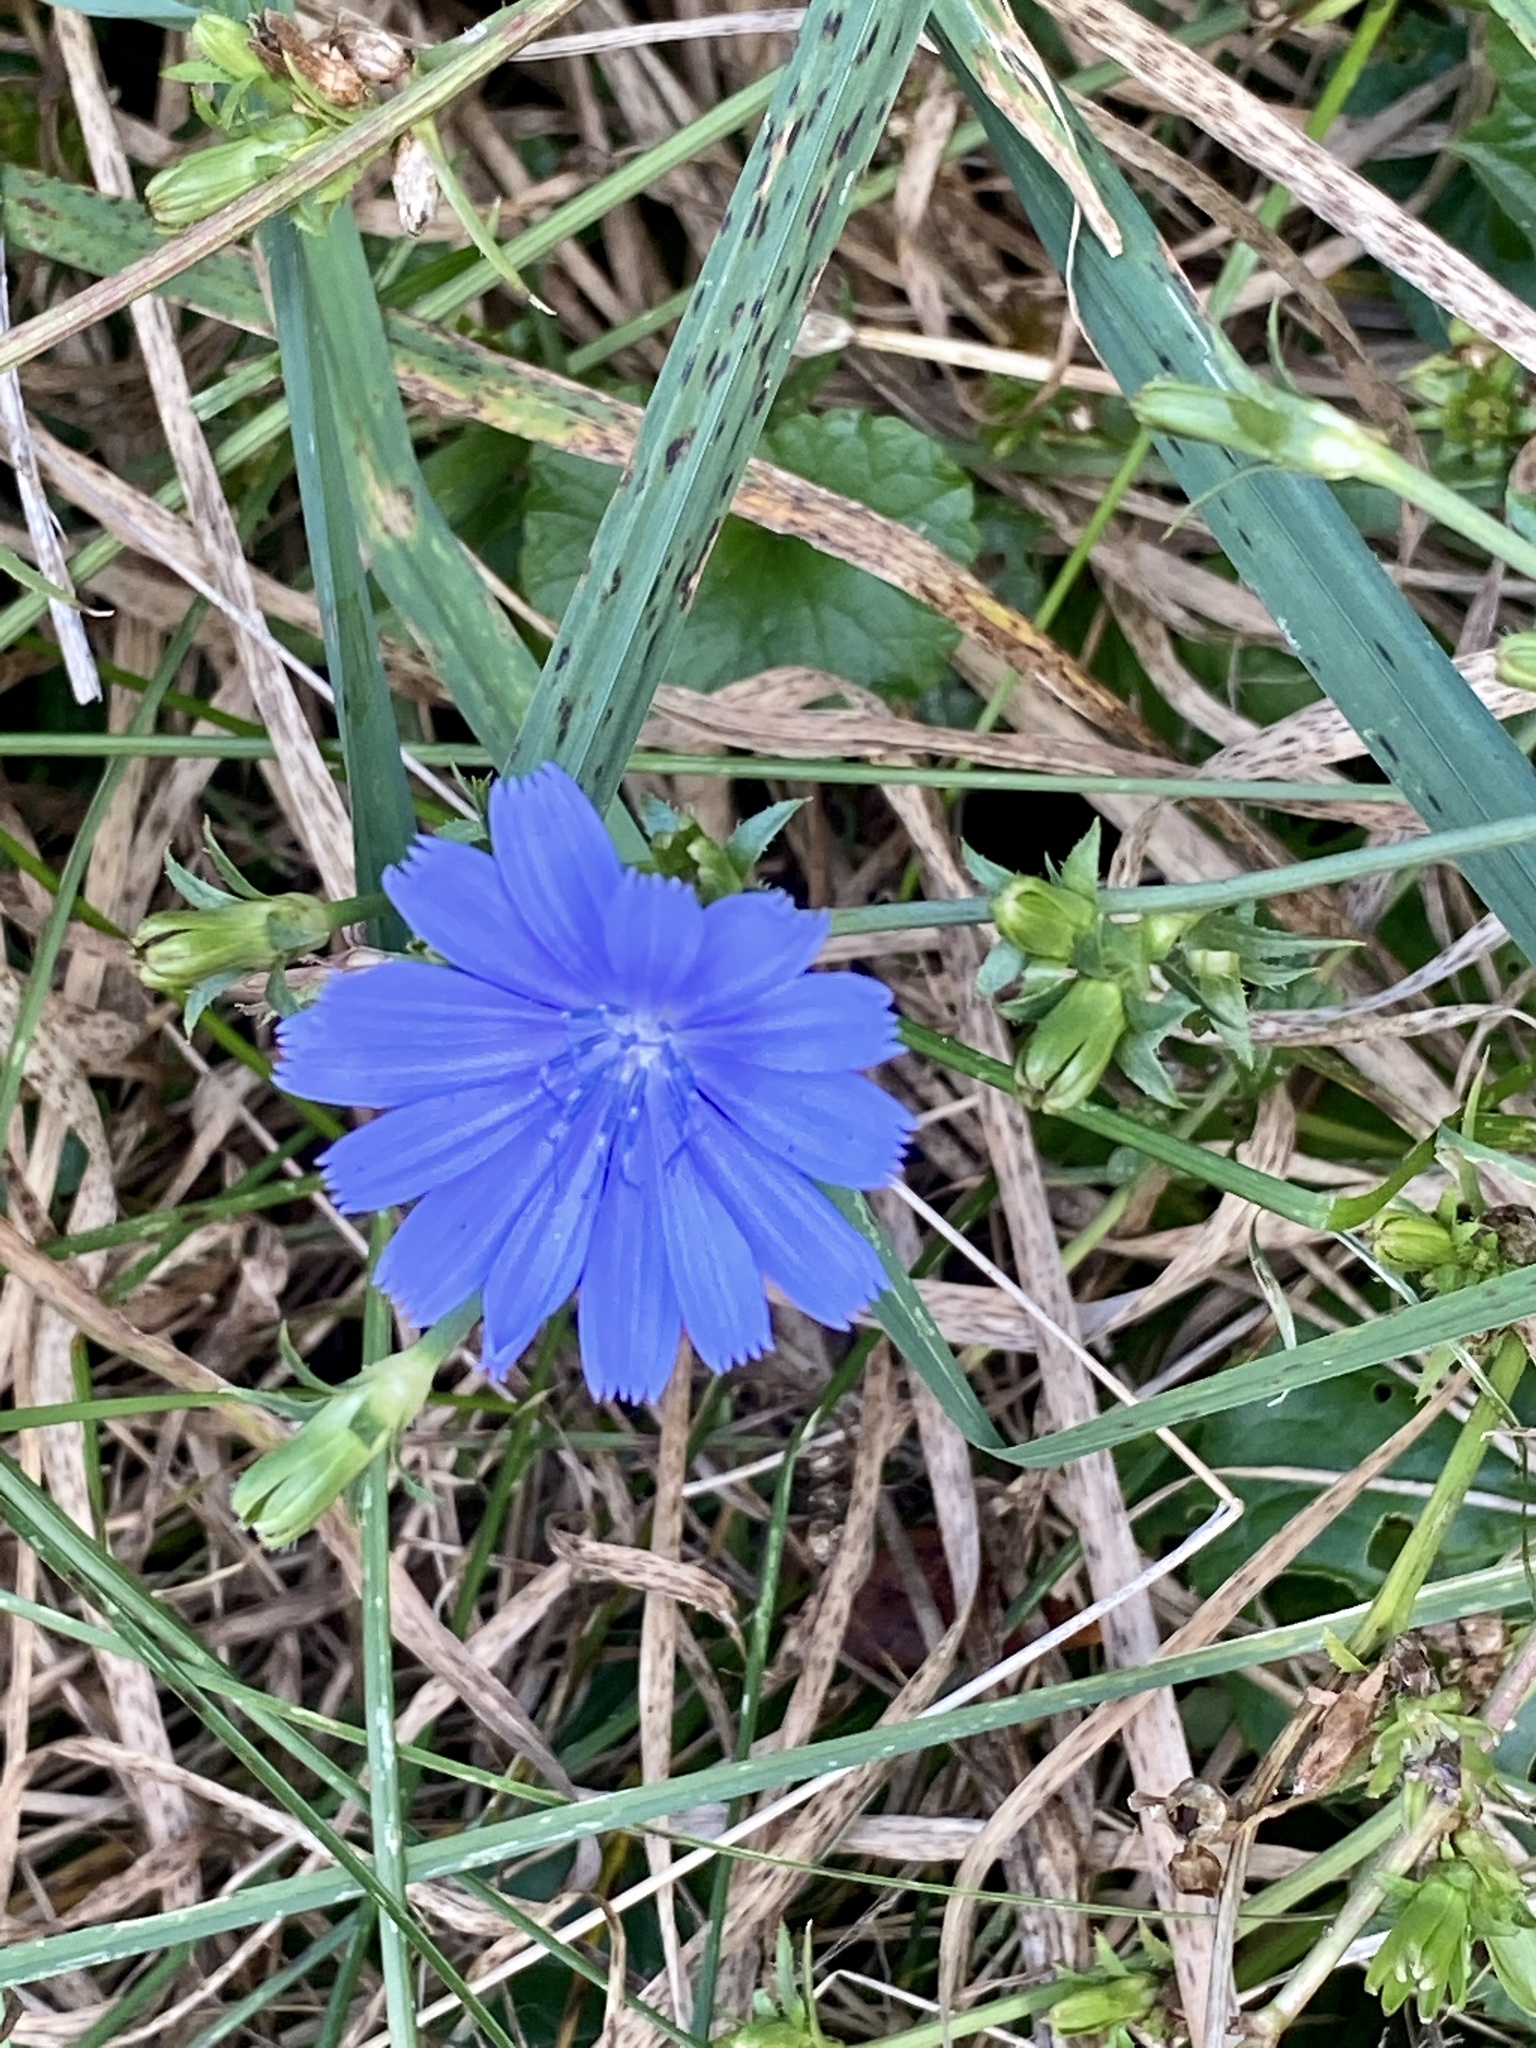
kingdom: Plantae
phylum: Tracheophyta
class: Magnoliopsida
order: Asterales
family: Asteraceae
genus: Cichorium
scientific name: Cichorium intybus
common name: Chicory
